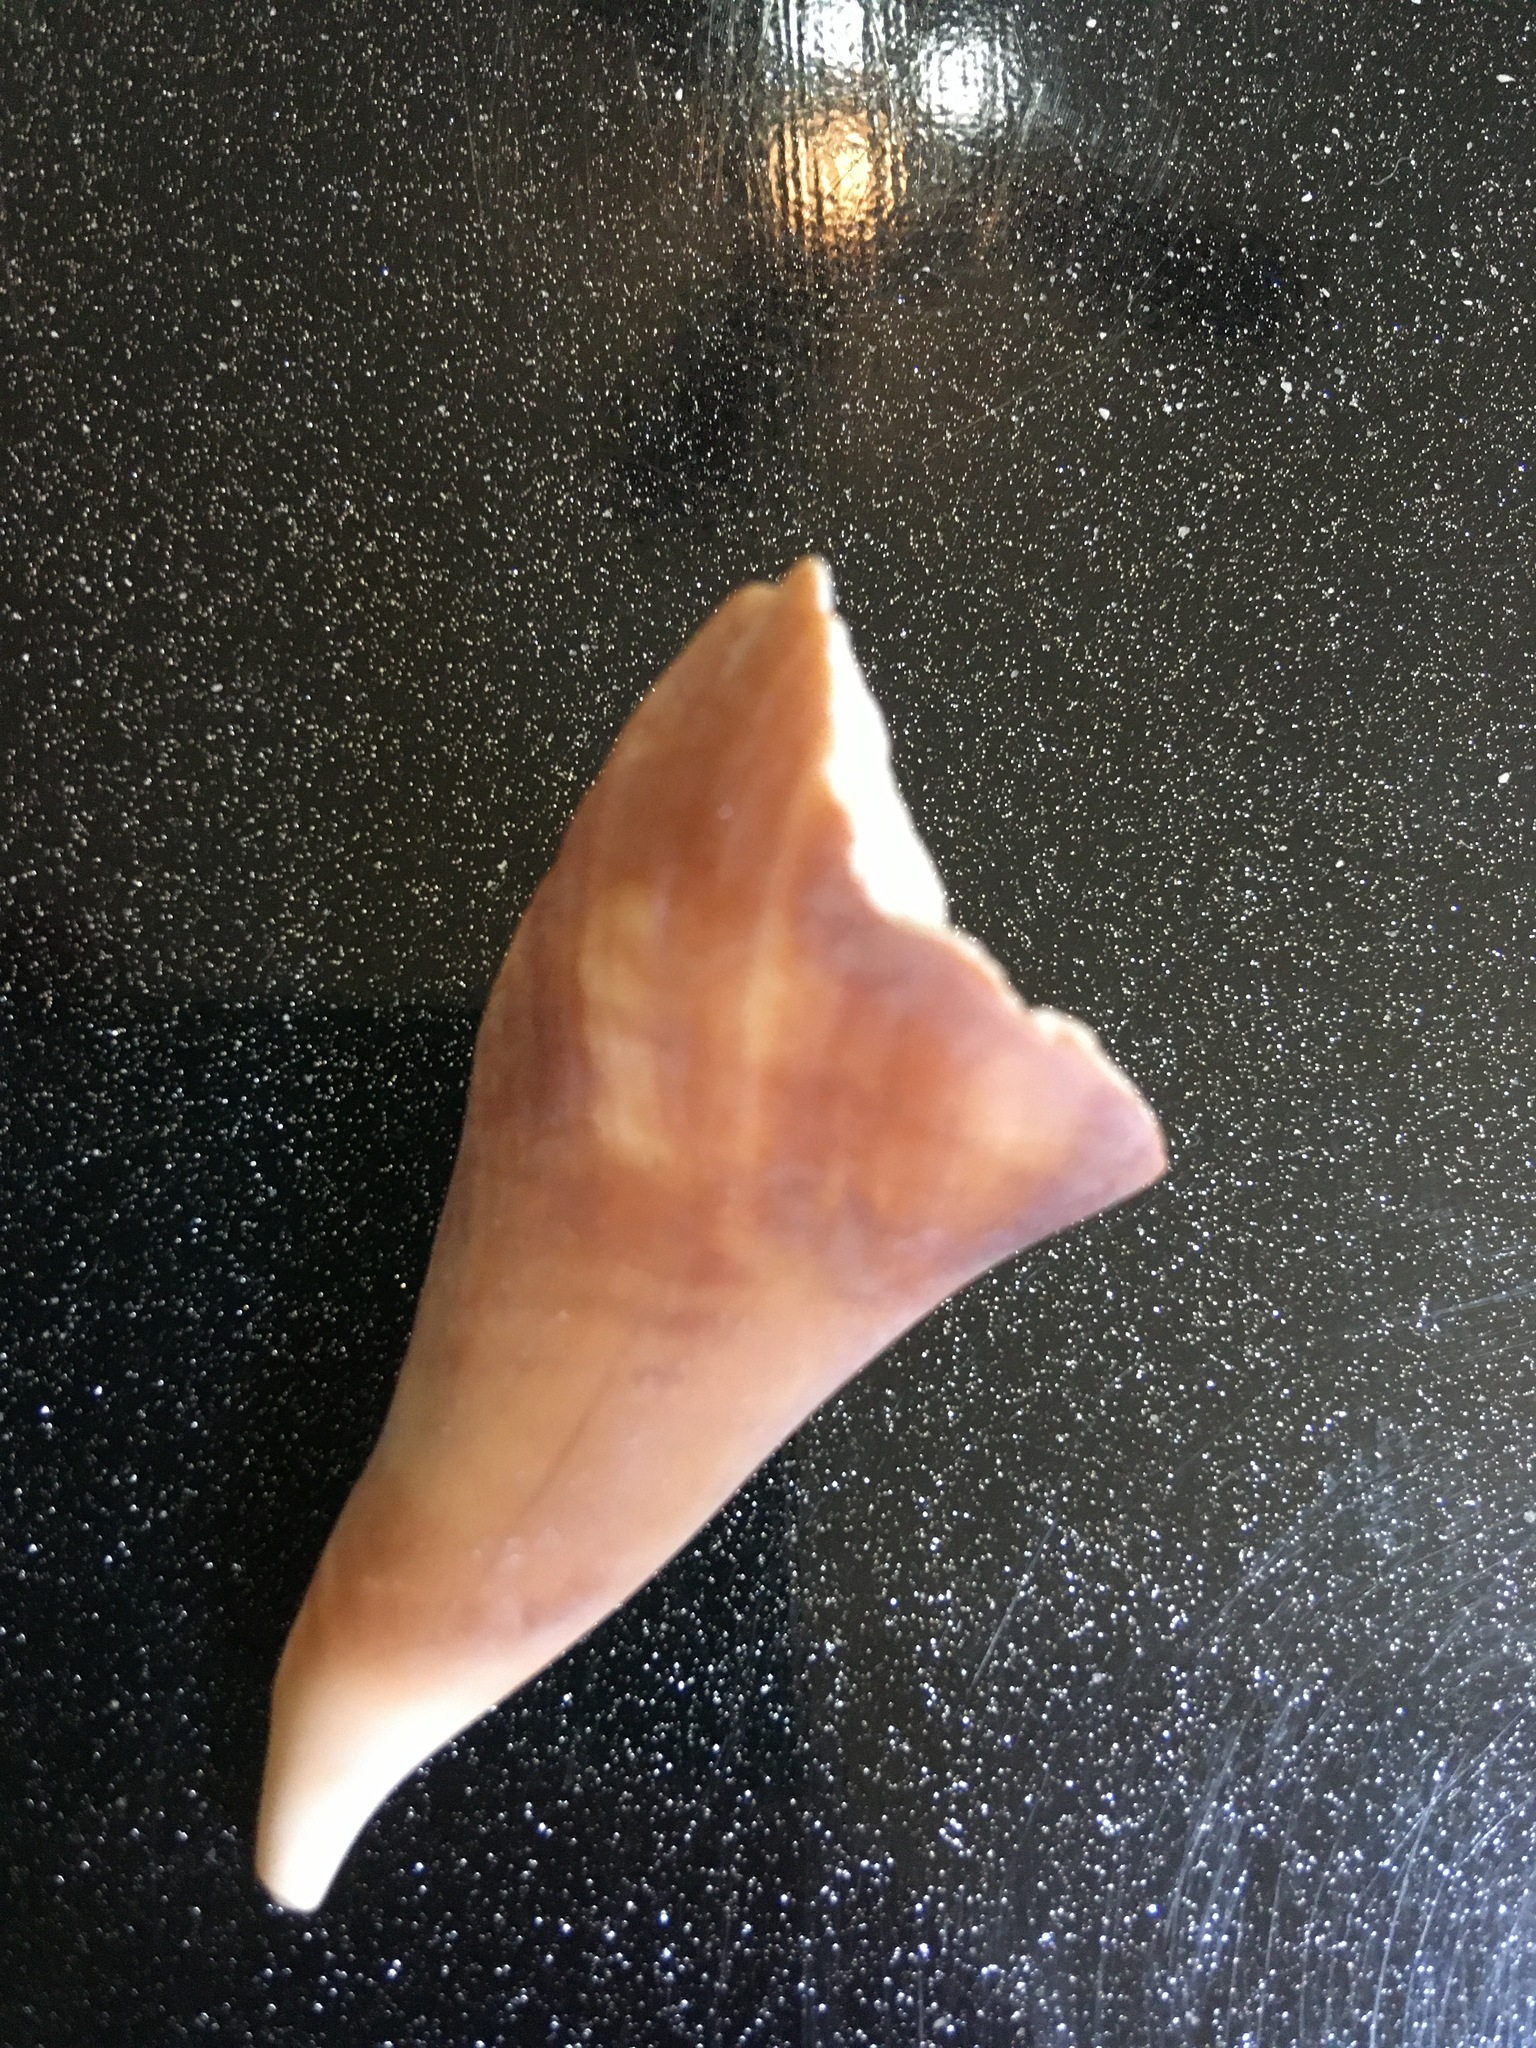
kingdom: Animalia
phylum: Mollusca
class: Gastropoda
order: Littorinimorpha
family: Strombidae
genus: Strombus
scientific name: Strombus alatus
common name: Florida fighting conch
